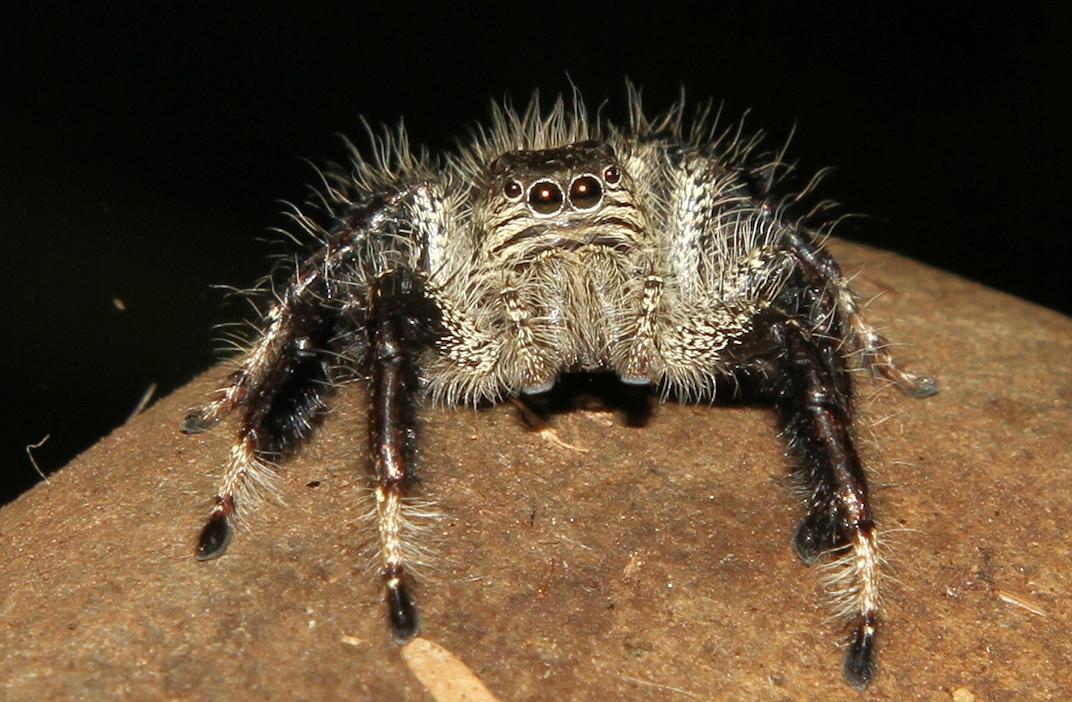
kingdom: Animalia
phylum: Arthropoda
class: Arachnida
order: Araneae
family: Salticidae
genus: Hyllus
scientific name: Hyllus treleaveni
